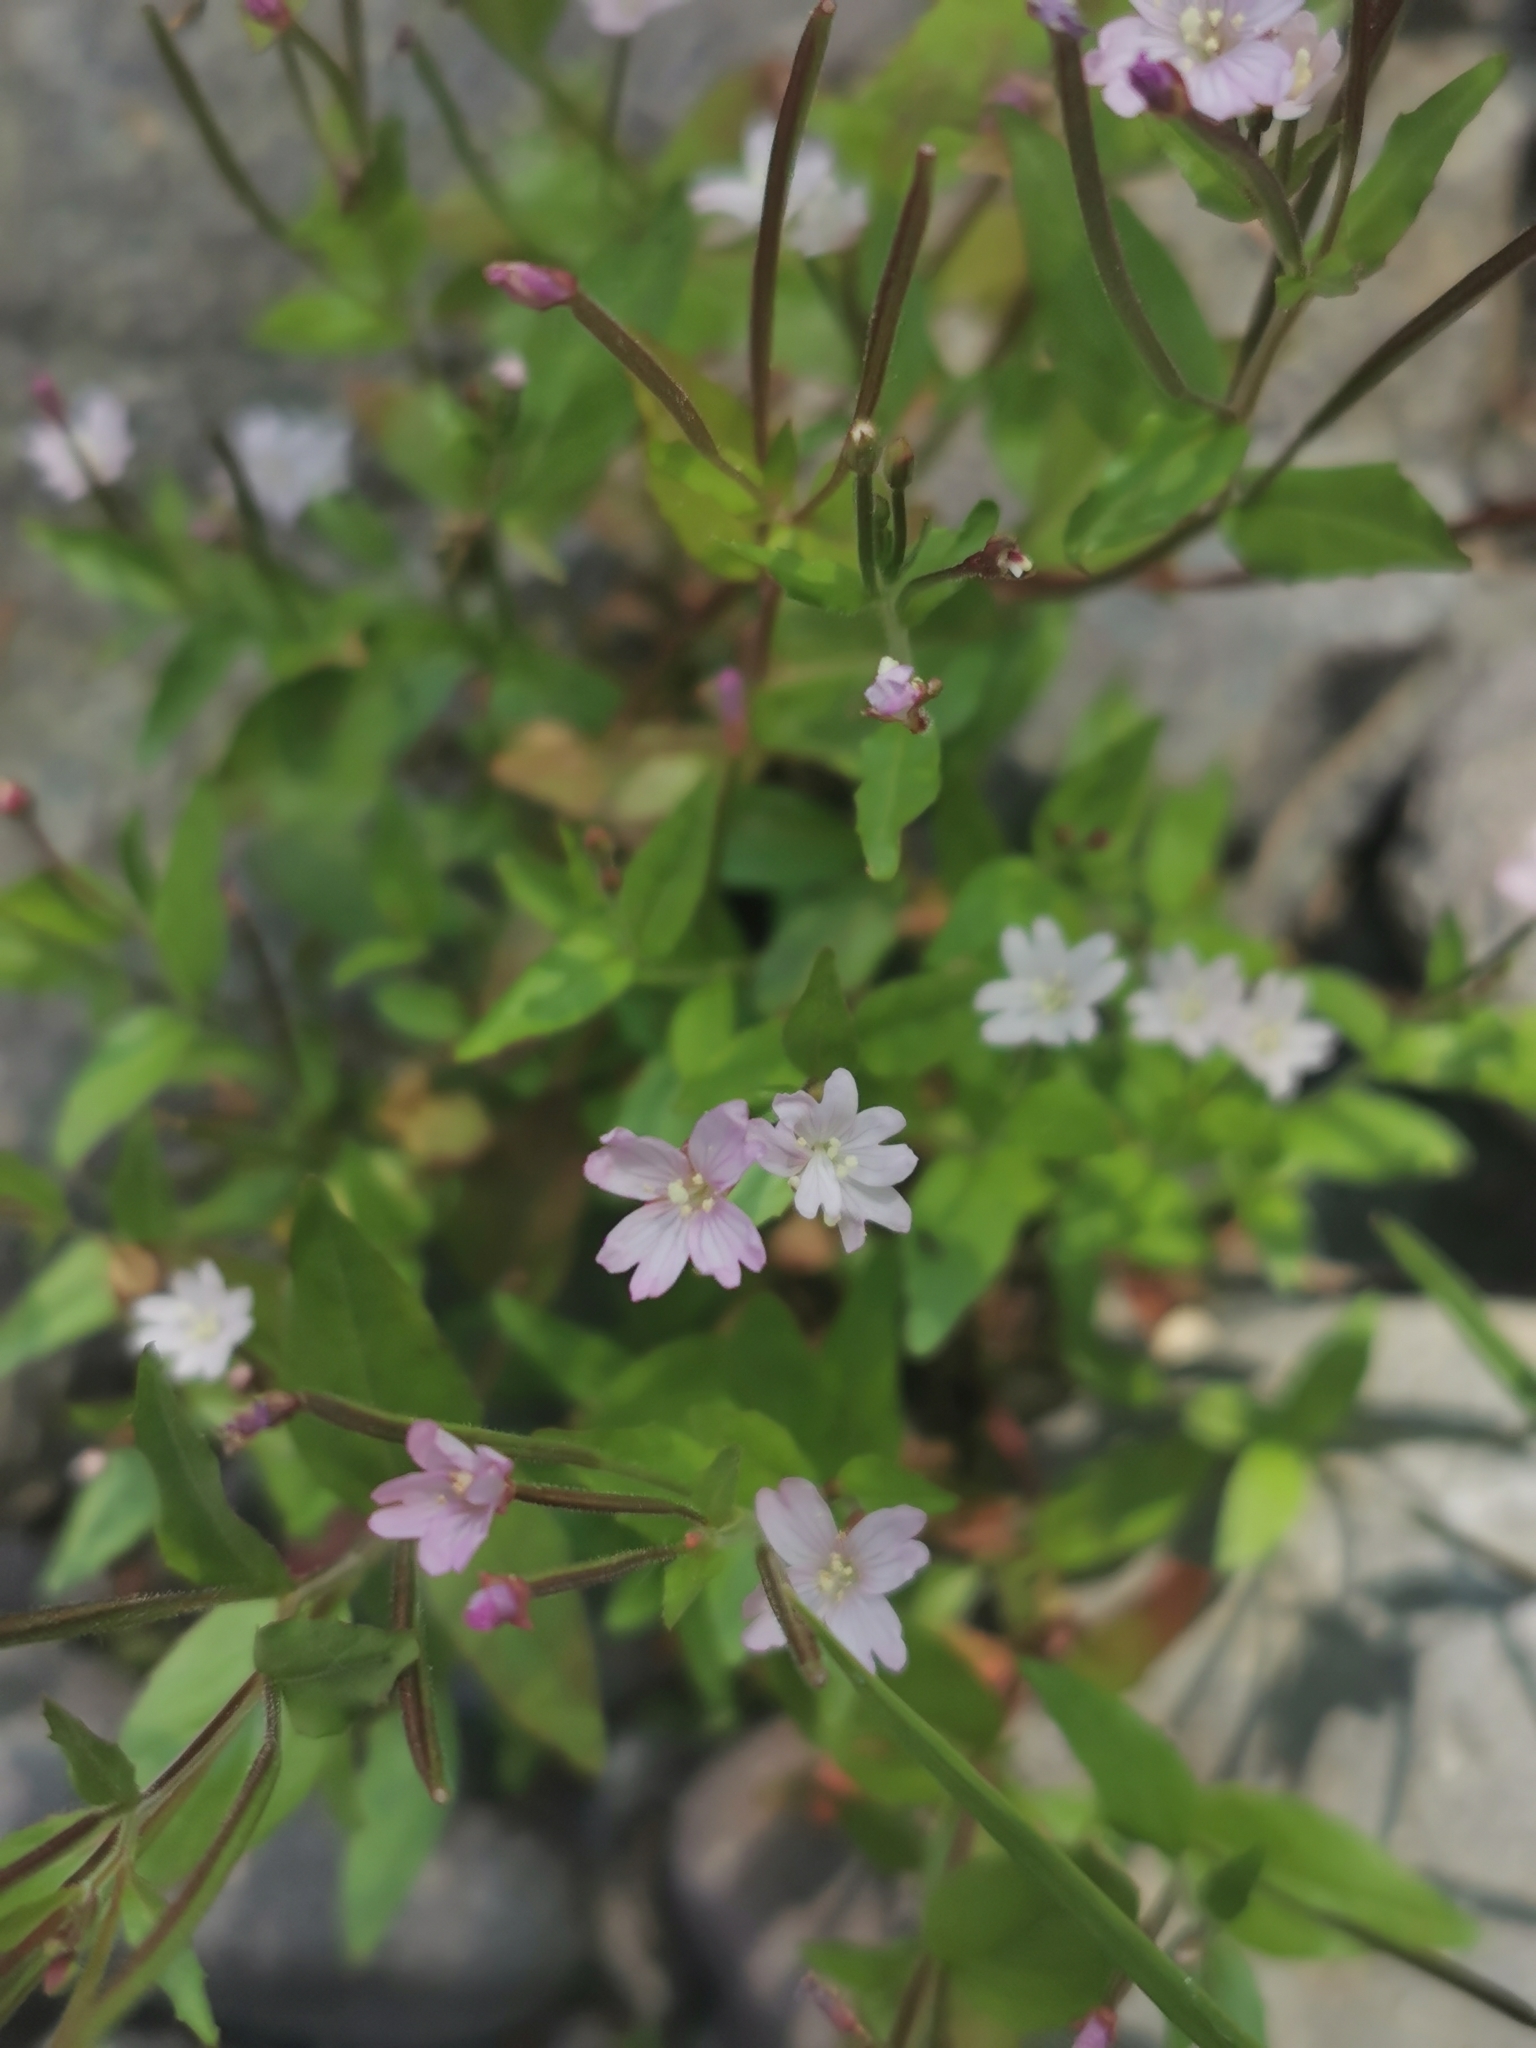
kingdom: Plantae
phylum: Tracheophyta
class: Magnoliopsida
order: Myrtales
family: Onagraceae
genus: Epilobium
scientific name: Epilobium anagallidifolium
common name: Alpine willowherb
